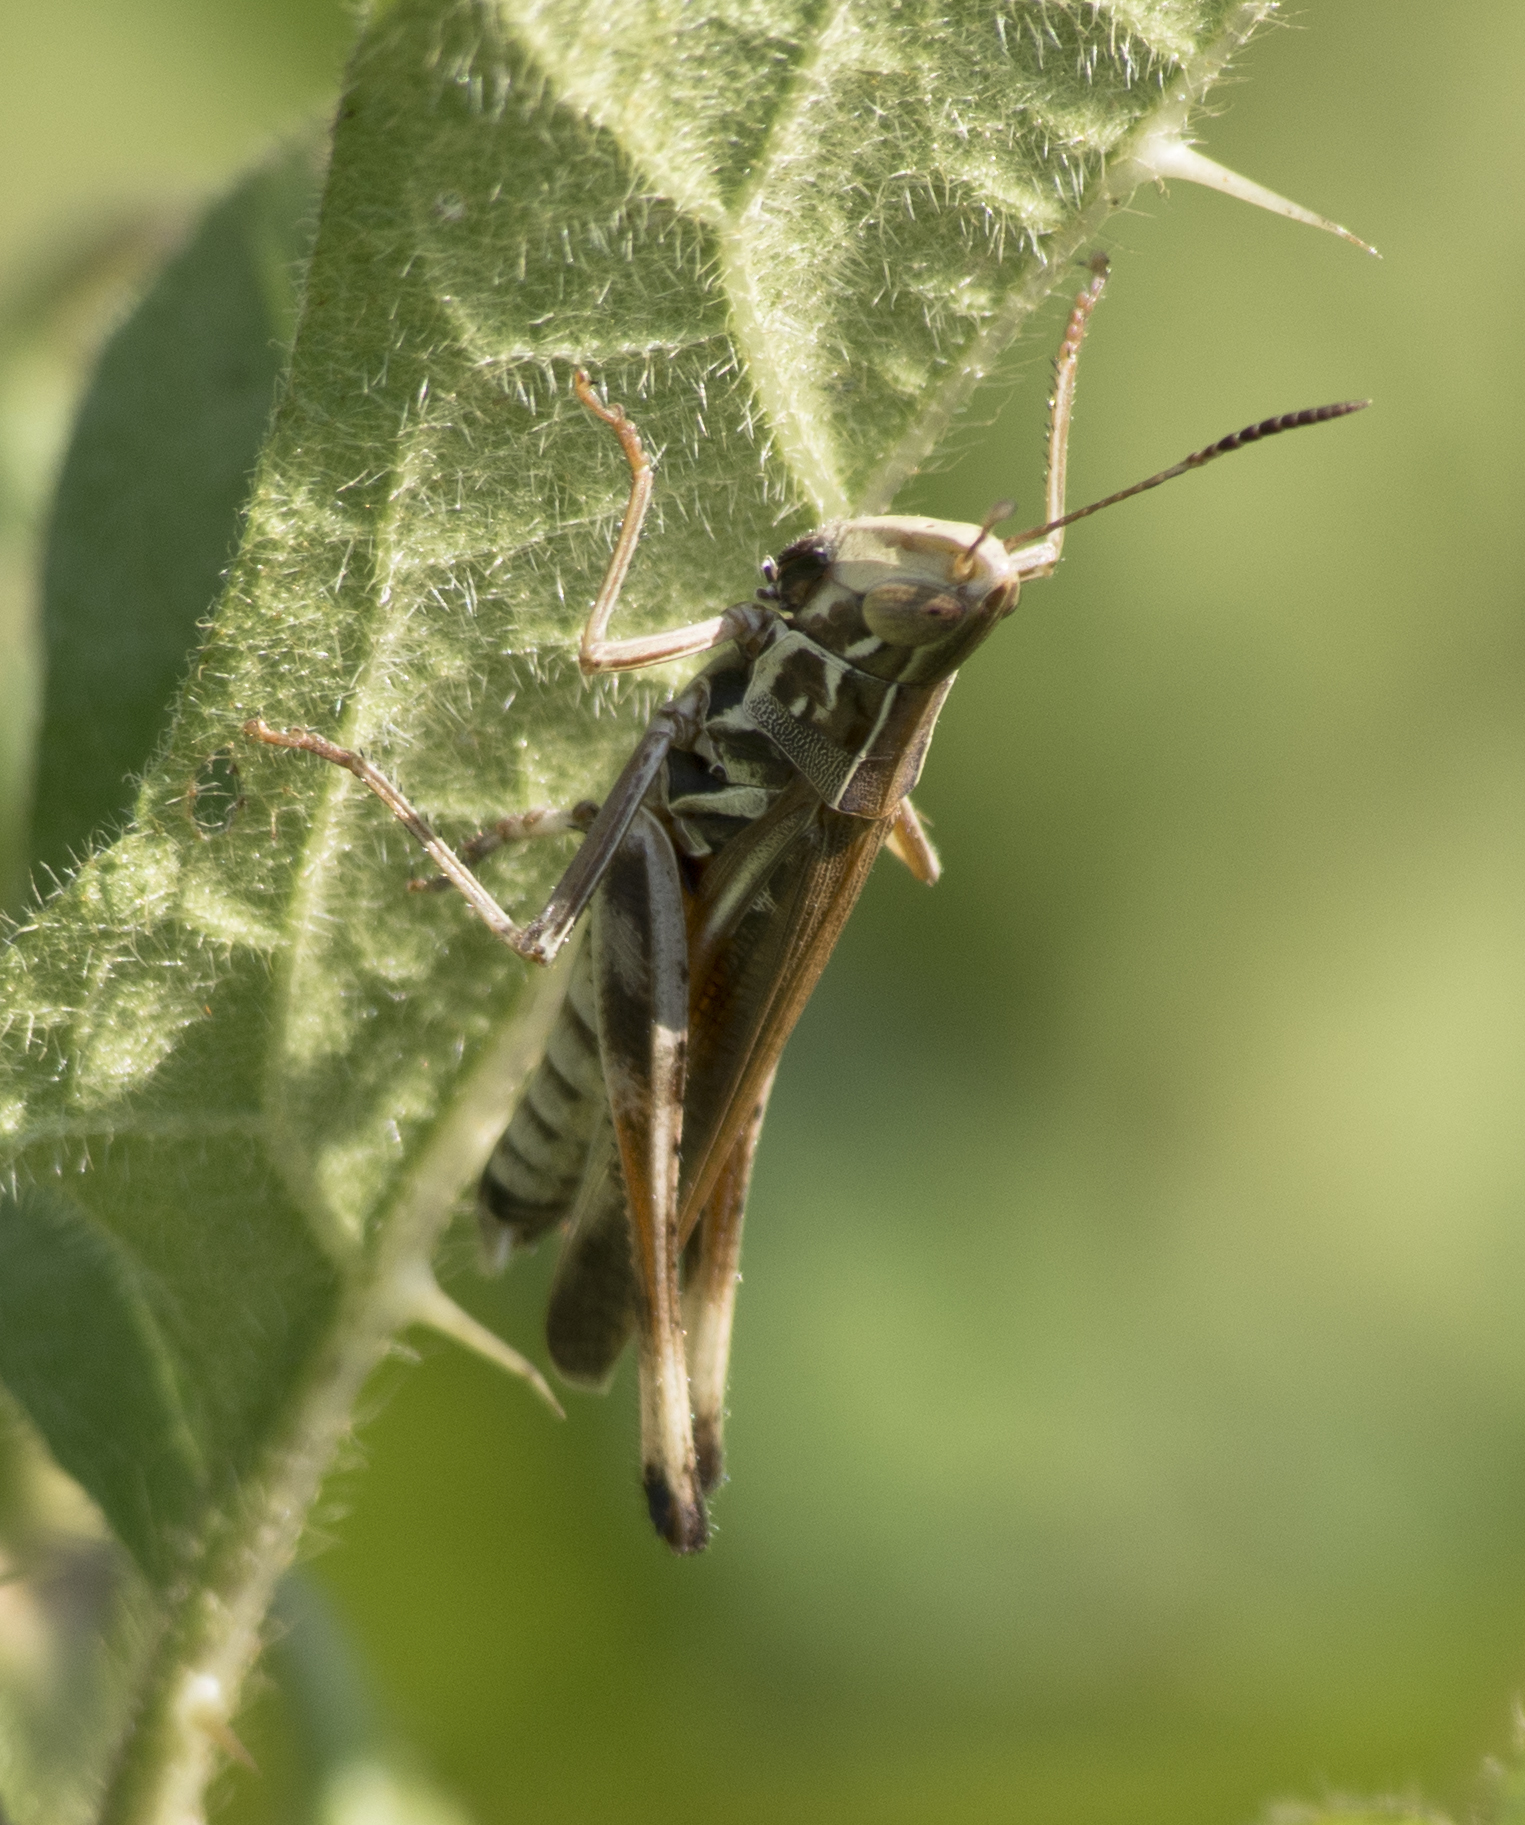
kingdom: Animalia
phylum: Arthropoda
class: Insecta
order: Orthoptera
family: Acrididae
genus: Syrbula
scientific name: Syrbula admirabilis
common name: Handsome grasshopper
